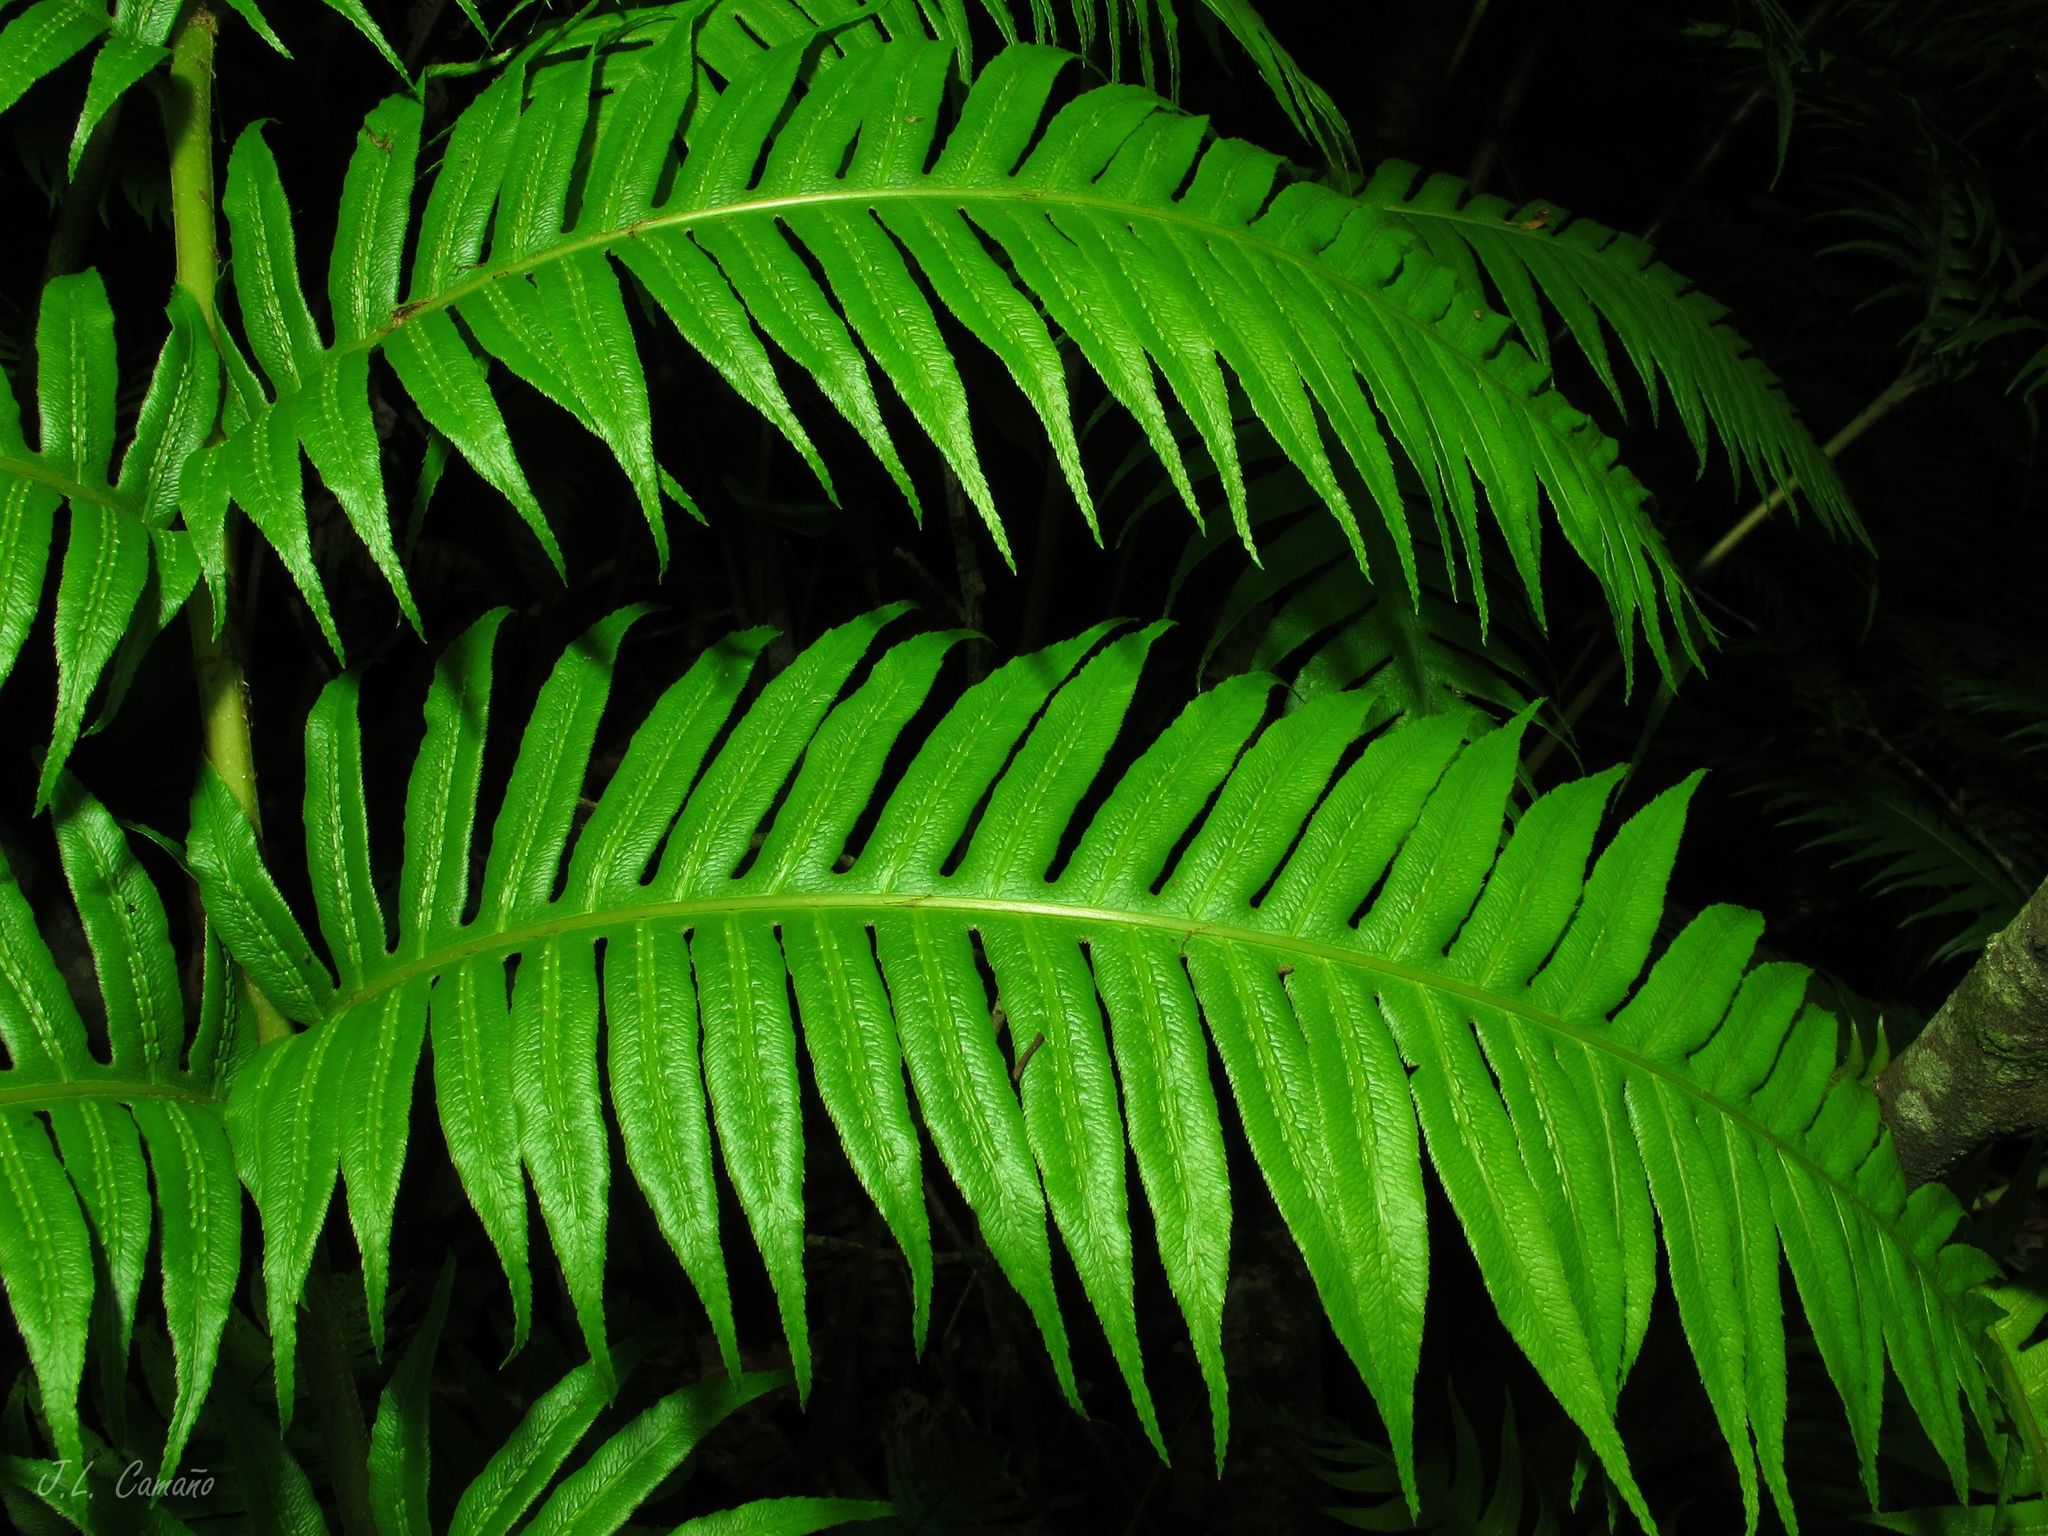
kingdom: Plantae
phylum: Tracheophyta
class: Polypodiopsida
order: Polypodiales
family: Blechnaceae
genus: Woodwardia
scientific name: Woodwardia radicans
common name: Rooting chainfern
